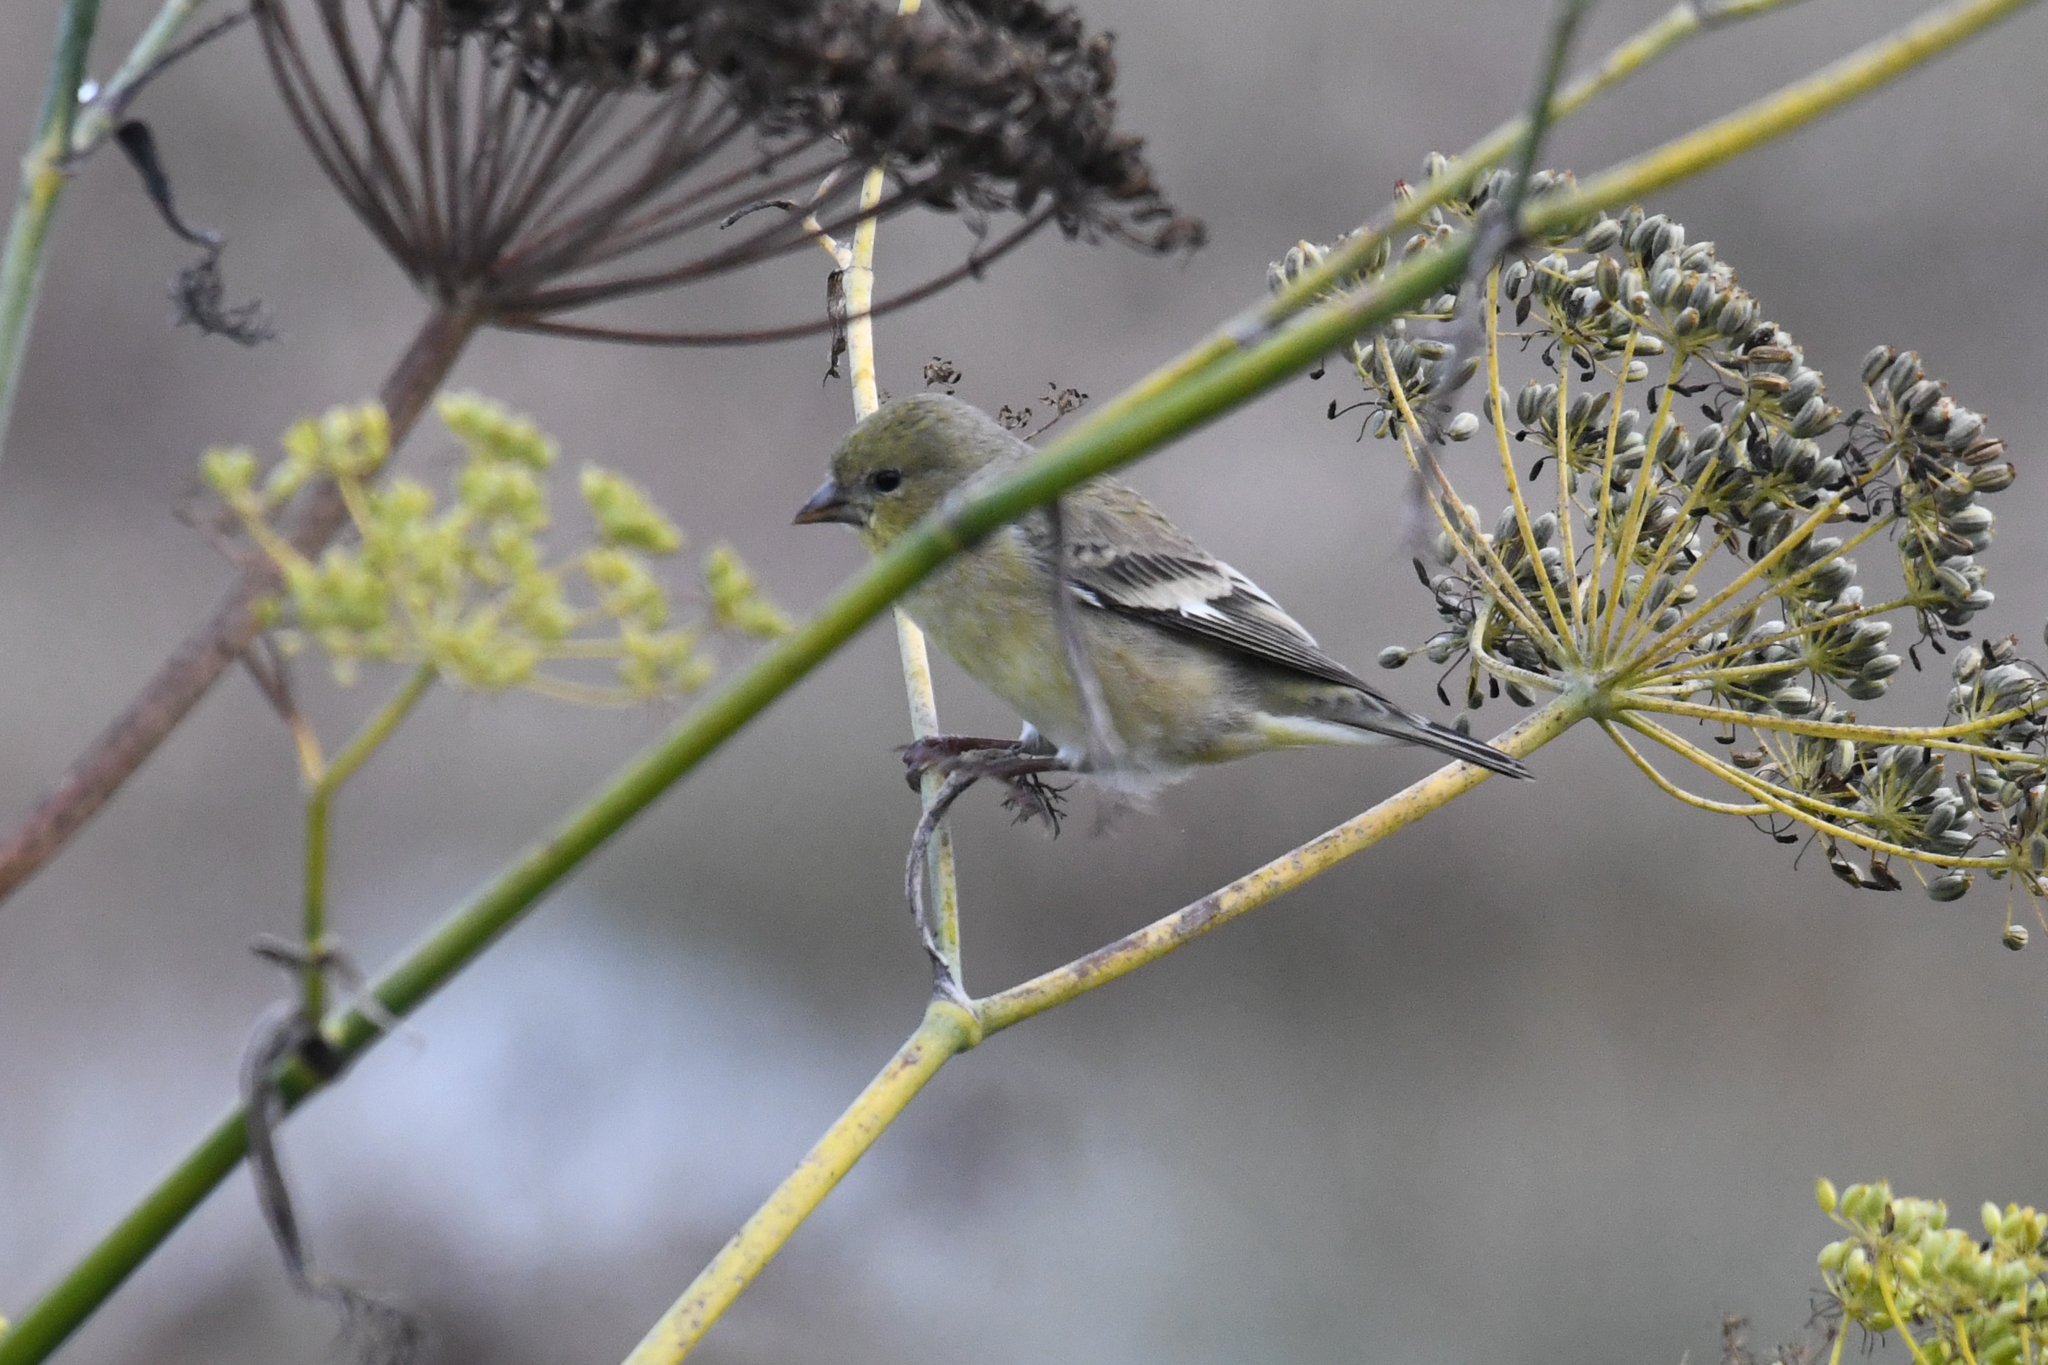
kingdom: Animalia
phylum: Chordata
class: Aves
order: Passeriformes
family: Fringillidae
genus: Spinus
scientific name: Spinus psaltria
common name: Lesser goldfinch
